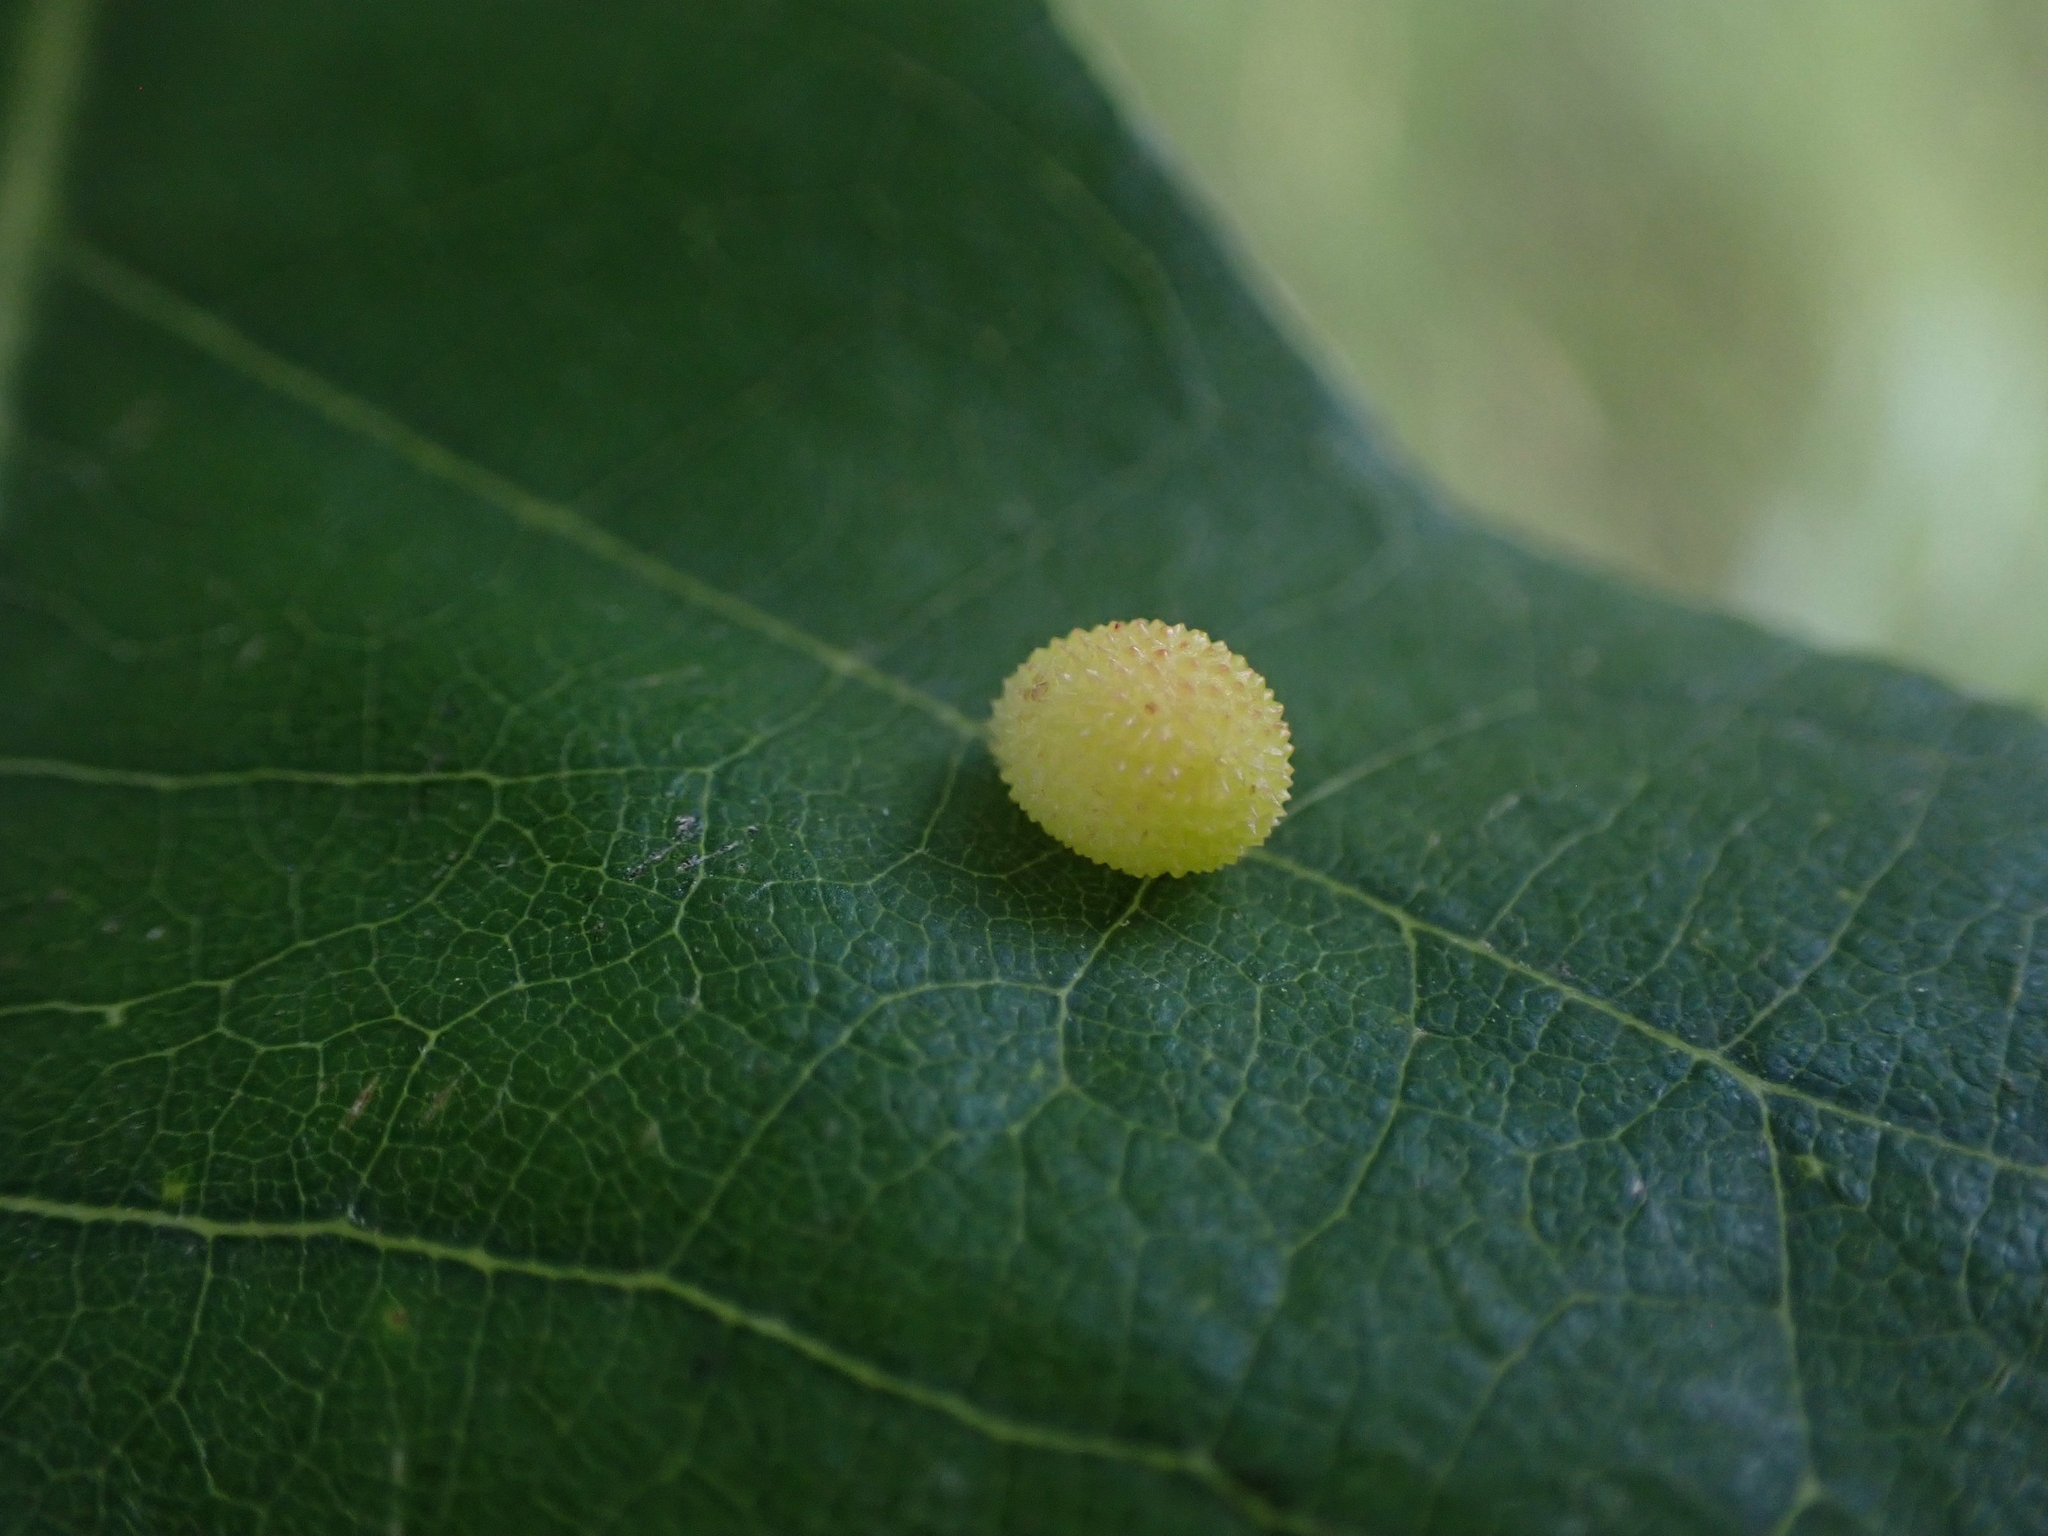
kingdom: Animalia
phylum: Arthropoda
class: Insecta
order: Hymenoptera
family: Cynipidae
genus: Acraspis
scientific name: Acraspis quercushirta
